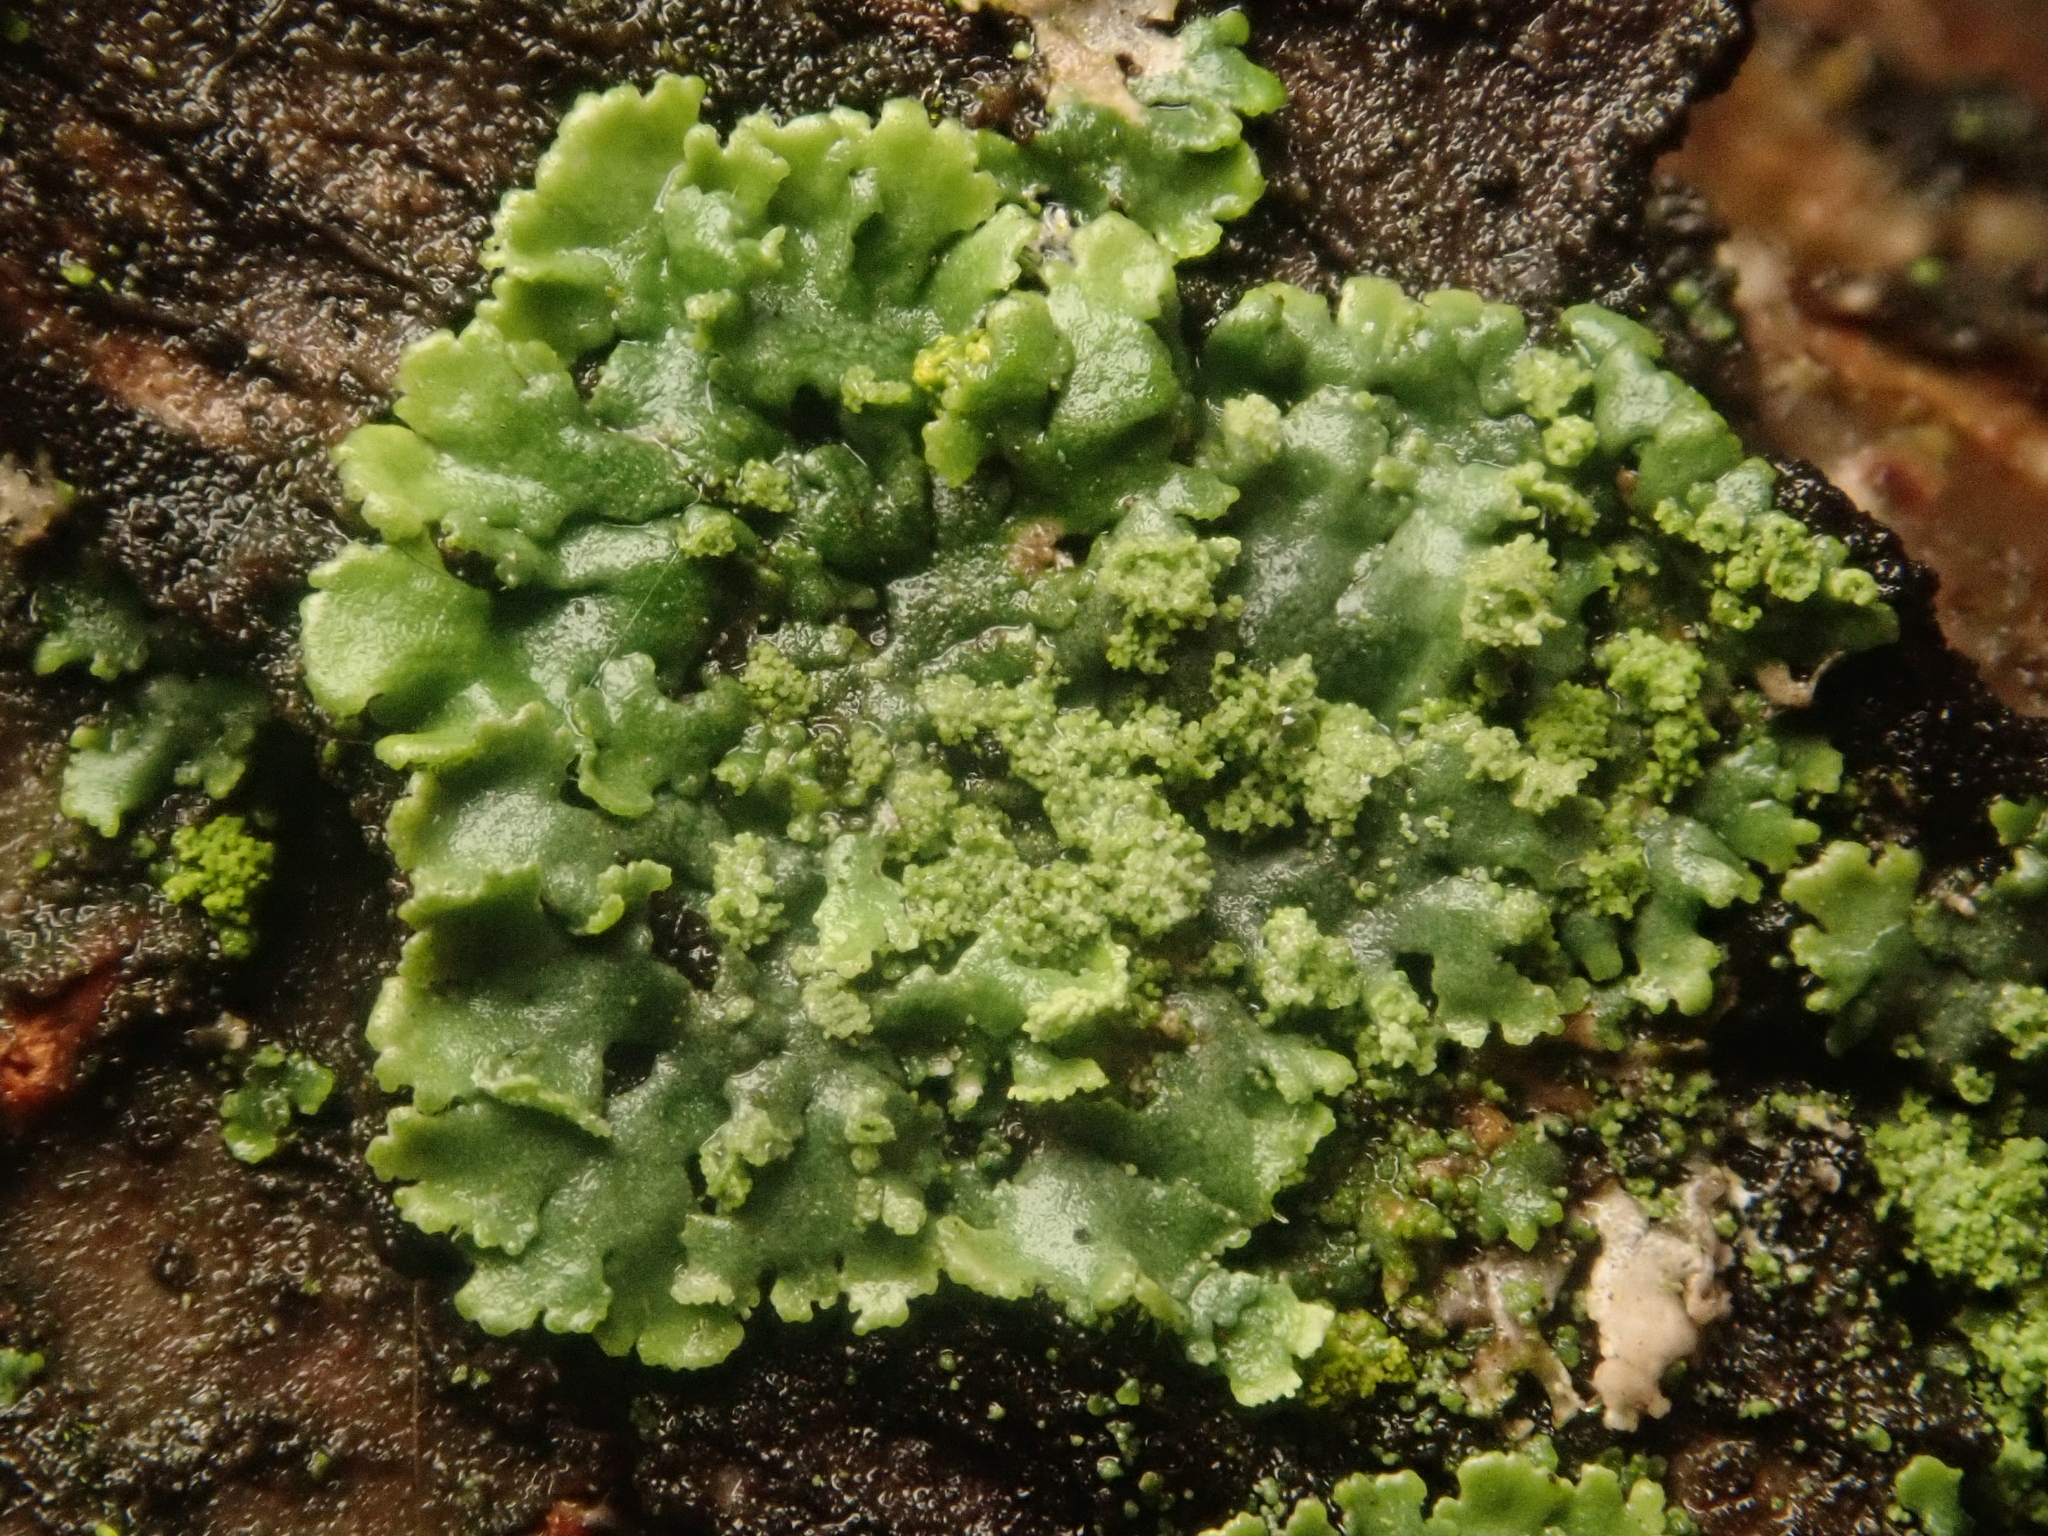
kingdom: Fungi
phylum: Ascomycota
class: Lecanoromycetes
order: Caliciales
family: Physciaceae
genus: Phaeophyscia
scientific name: Phaeophyscia orbicularis
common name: Mealy shadow lichen
